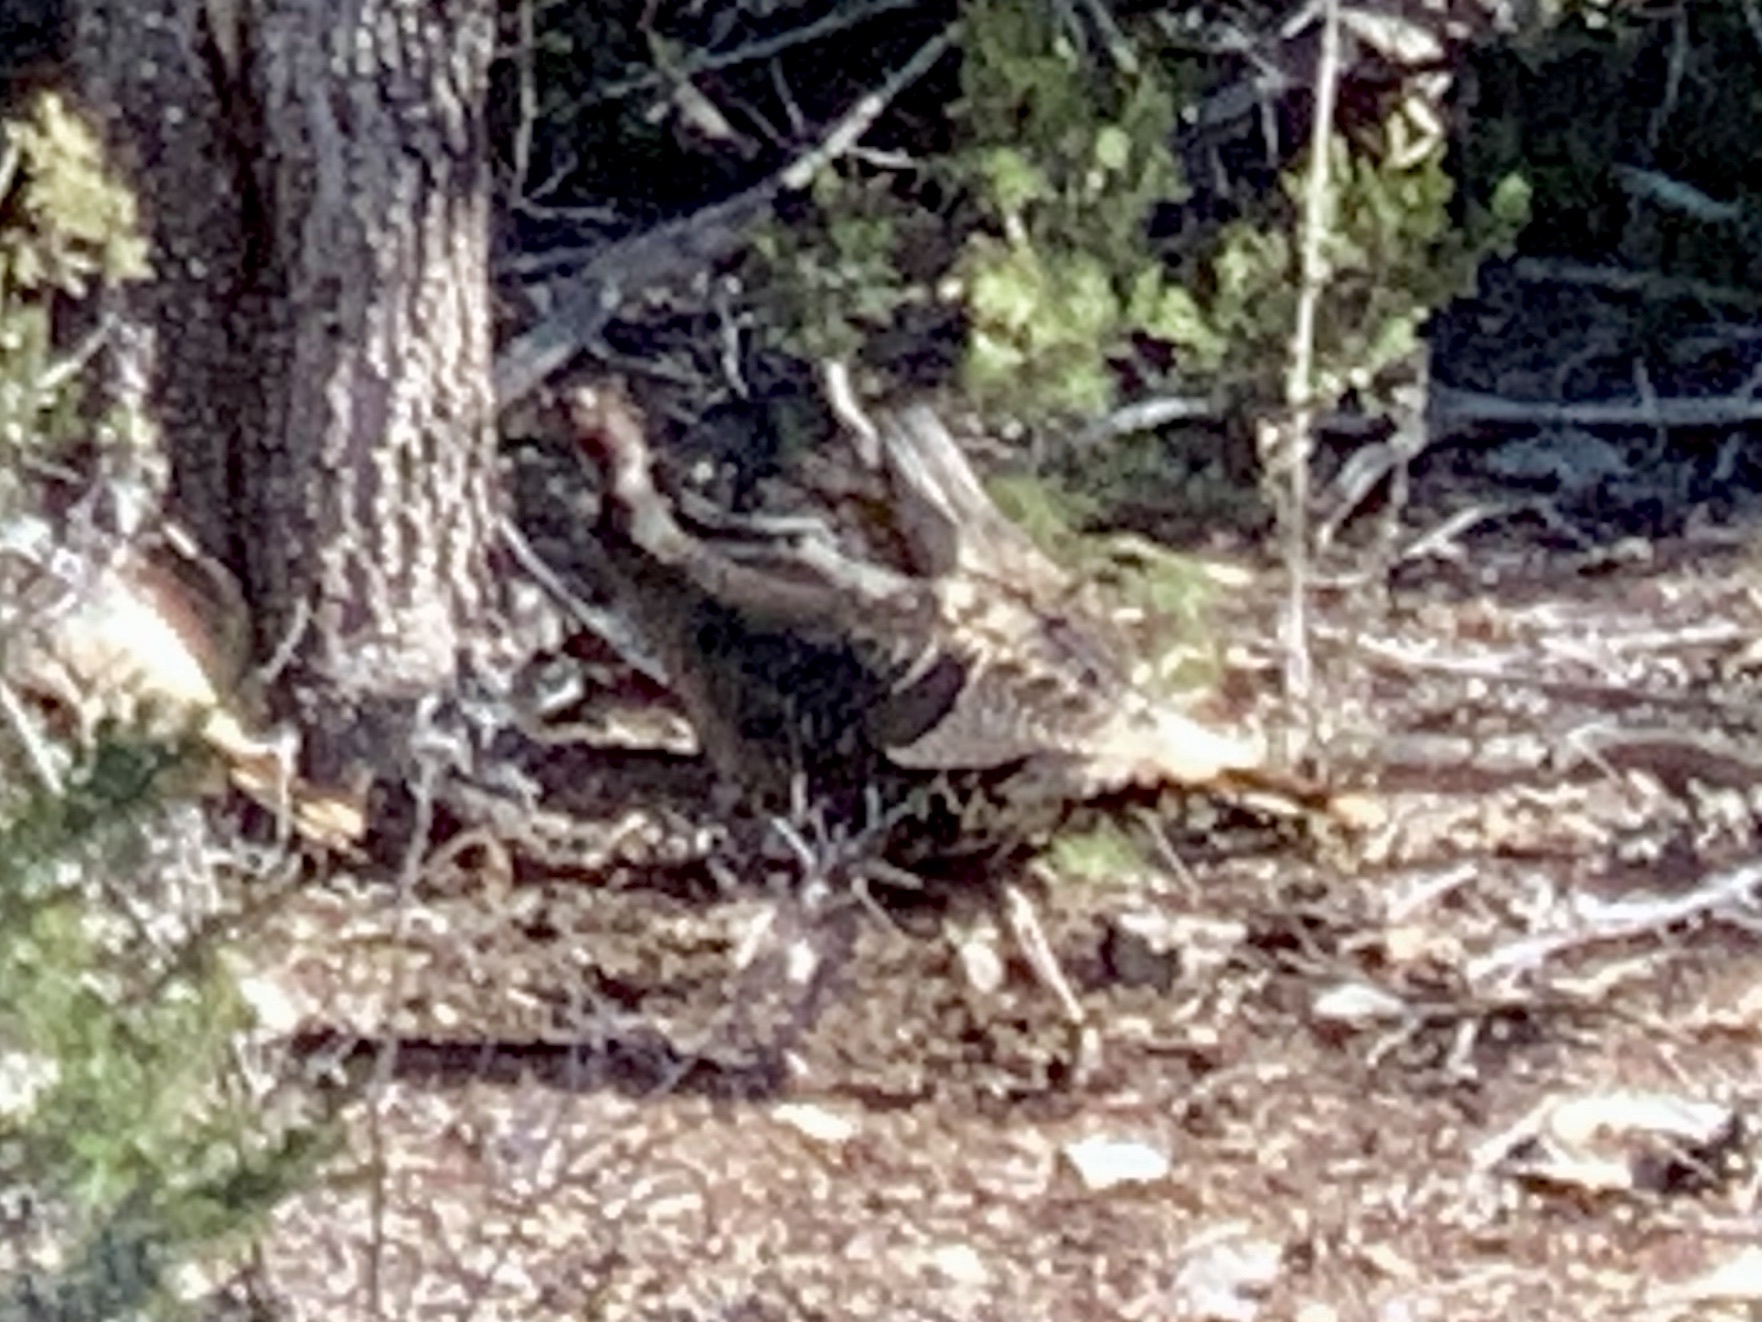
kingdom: Animalia
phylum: Chordata
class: Aves
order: Galliformes
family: Phasianidae
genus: Meleagris
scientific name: Meleagris gallopavo
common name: Wild turkey
